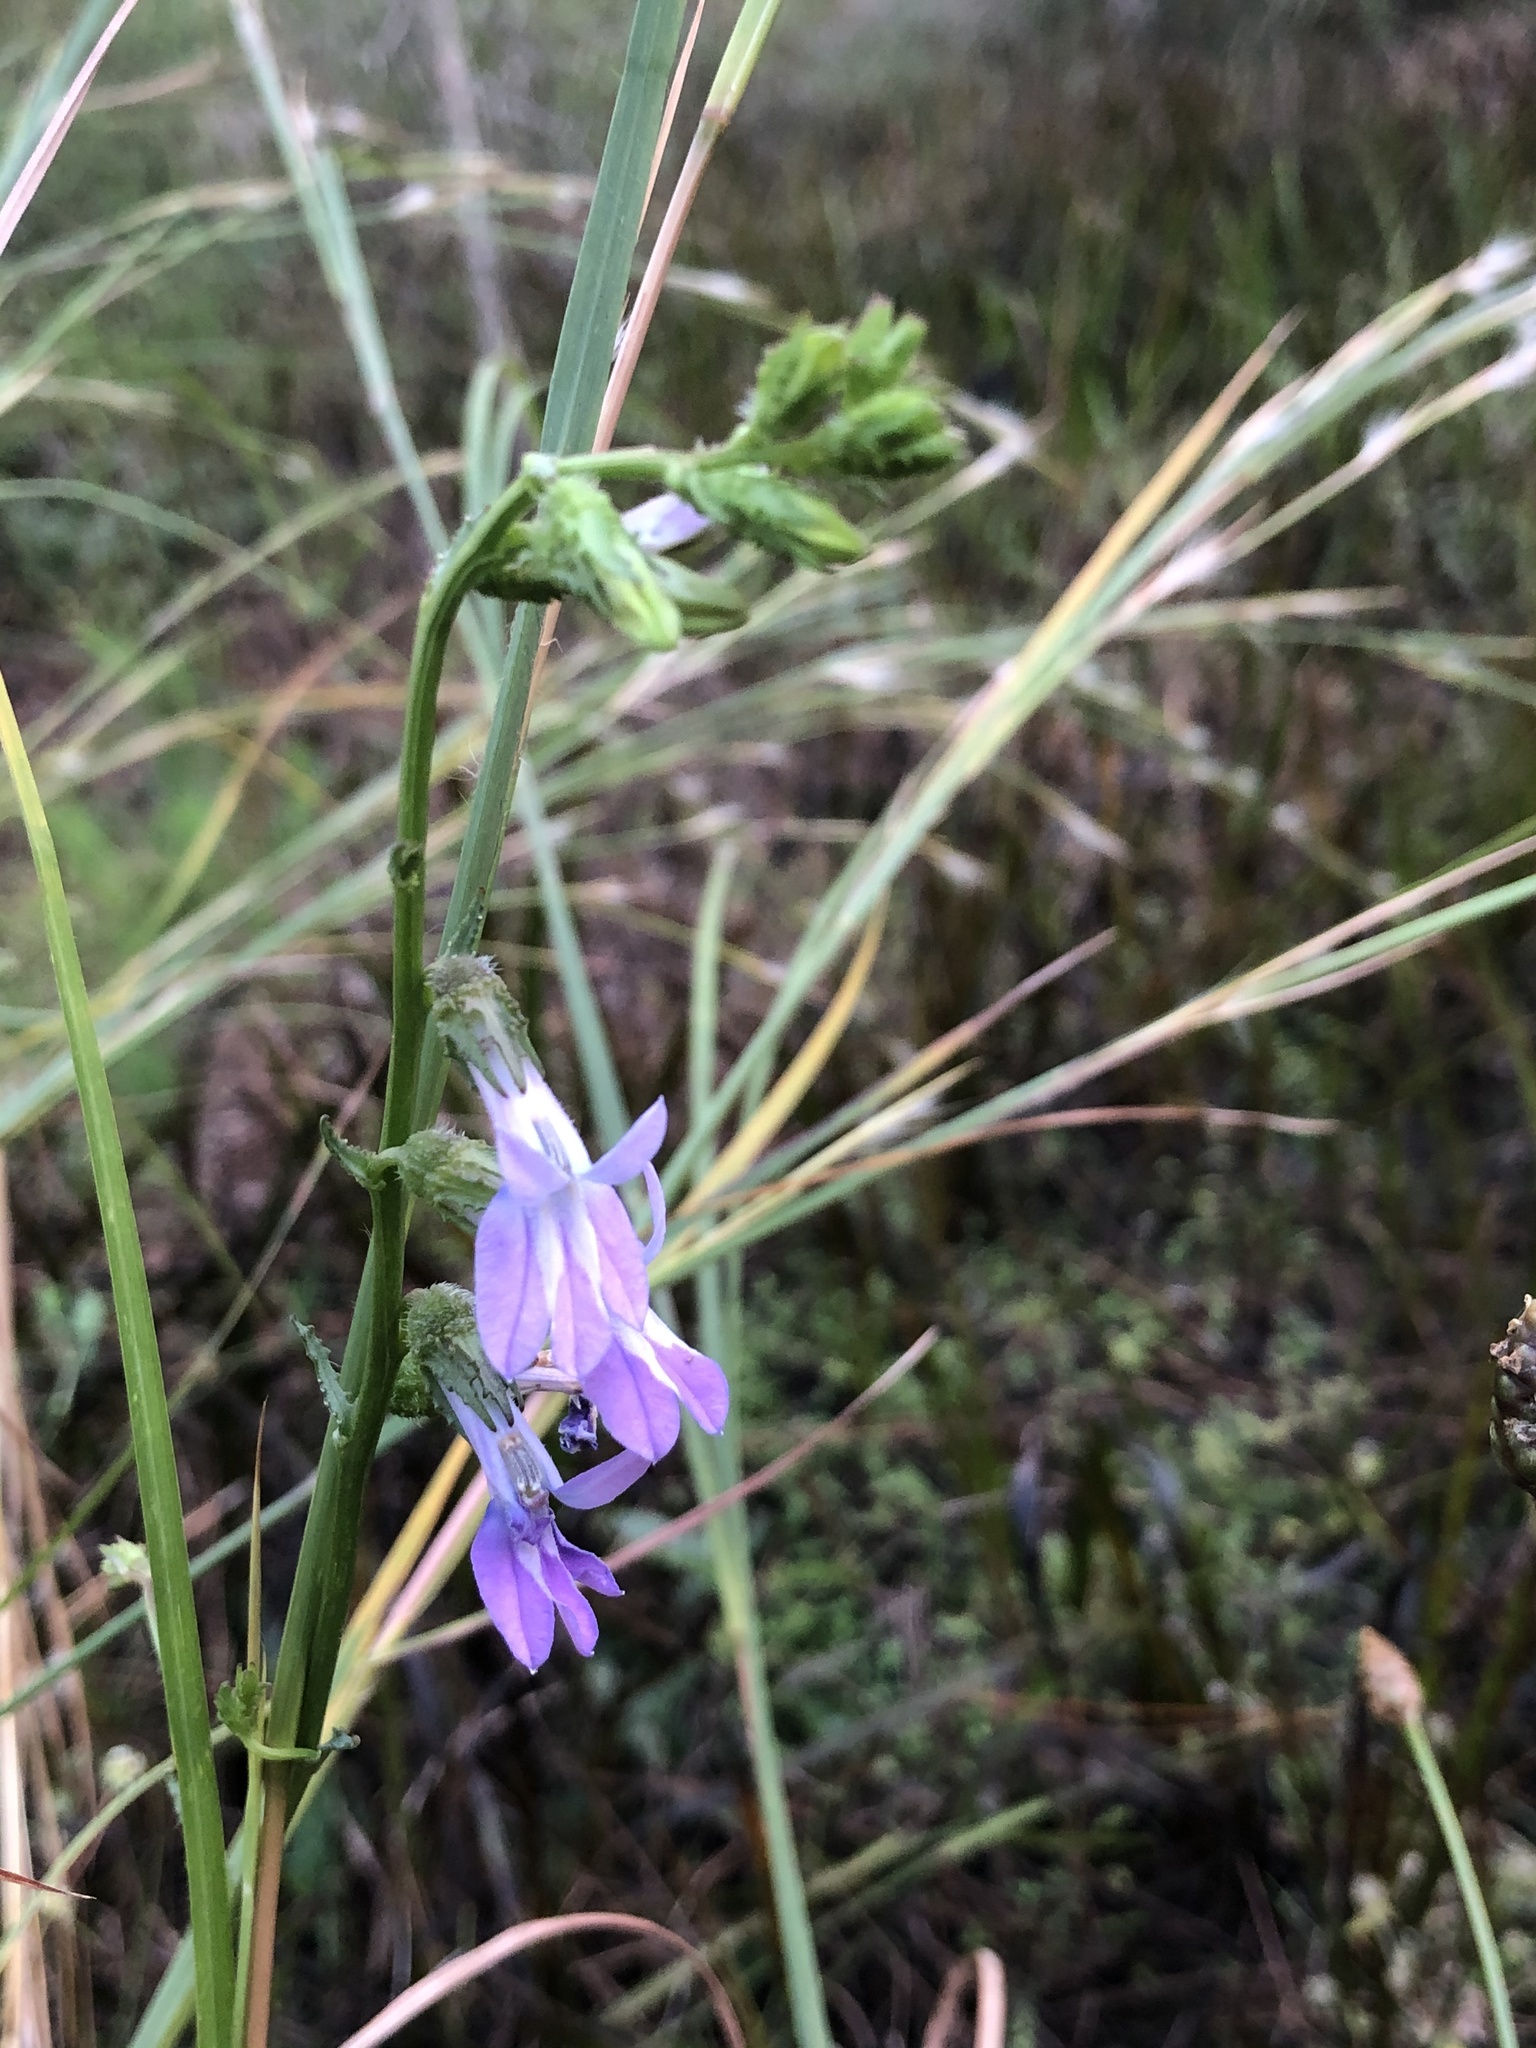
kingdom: Plantae
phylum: Tracheophyta
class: Magnoliopsida
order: Asterales
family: Campanulaceae
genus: Lobelia
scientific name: Lobelia glandulosa
